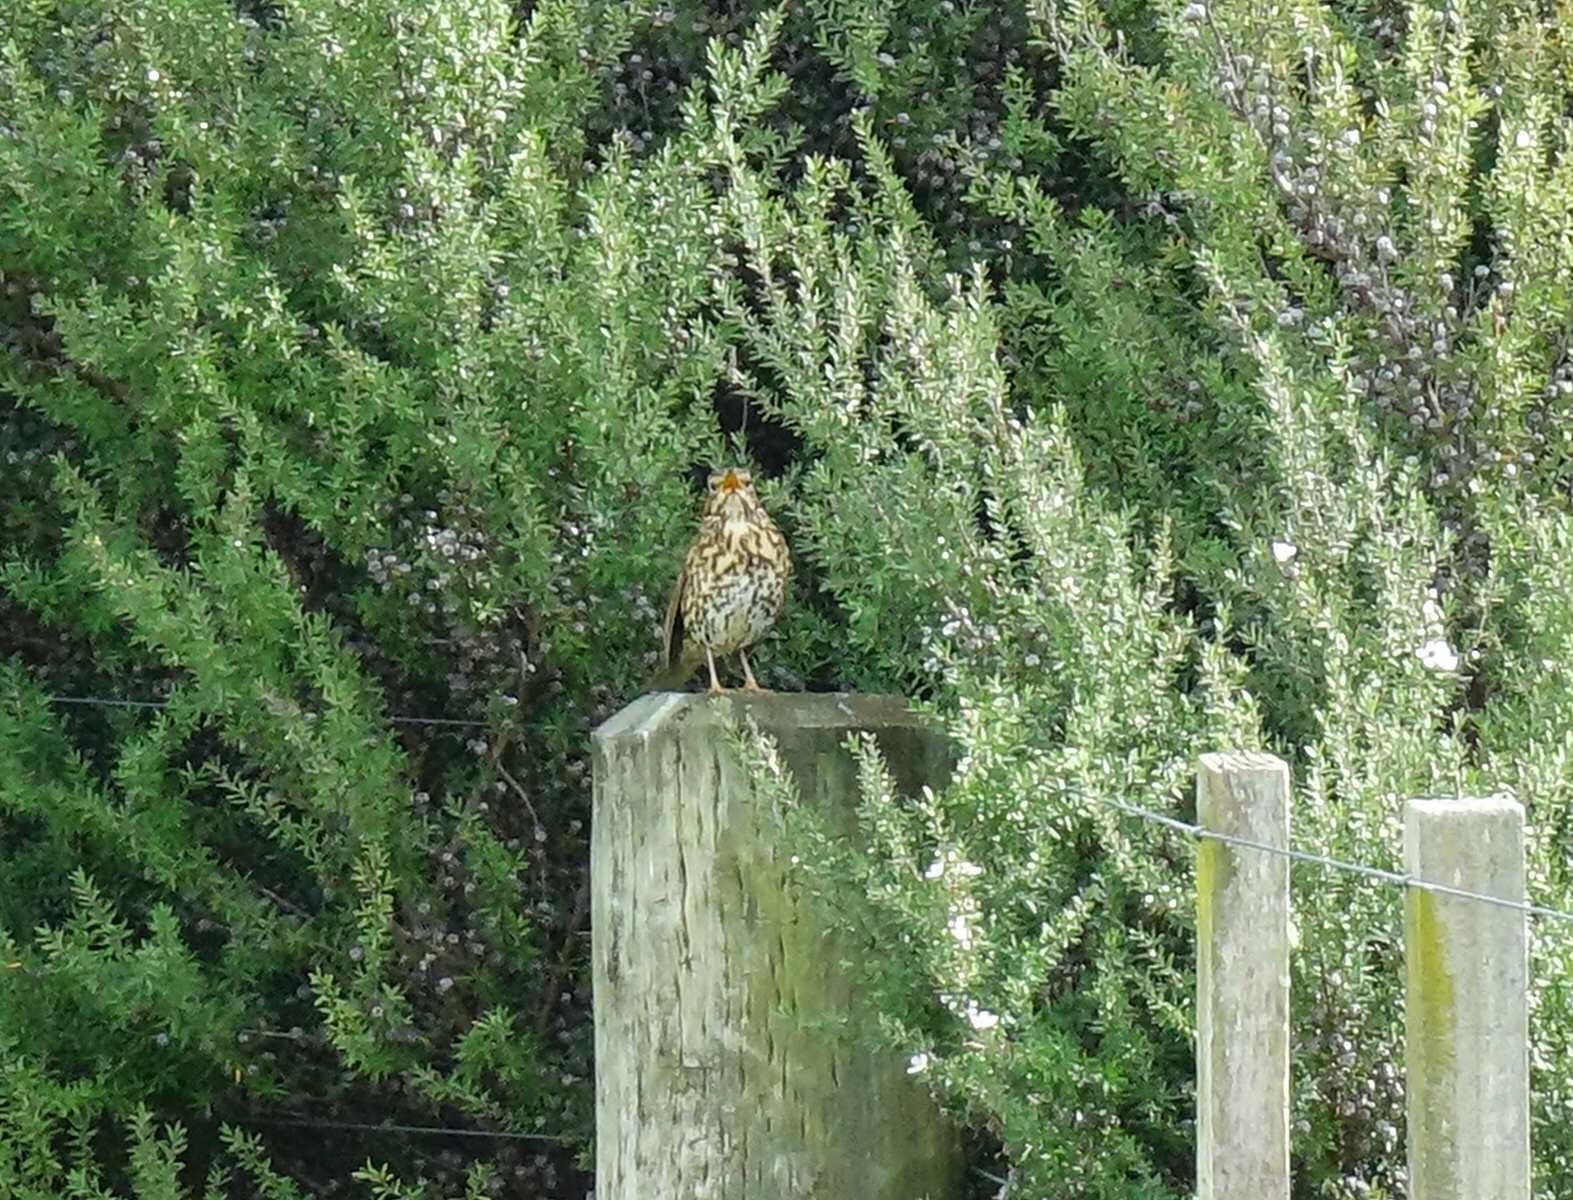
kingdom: Animalia
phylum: Chordata
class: Aves
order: Passeriformes
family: Turdidae
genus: Turdus
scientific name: Turdus philomelos
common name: Song thrush
